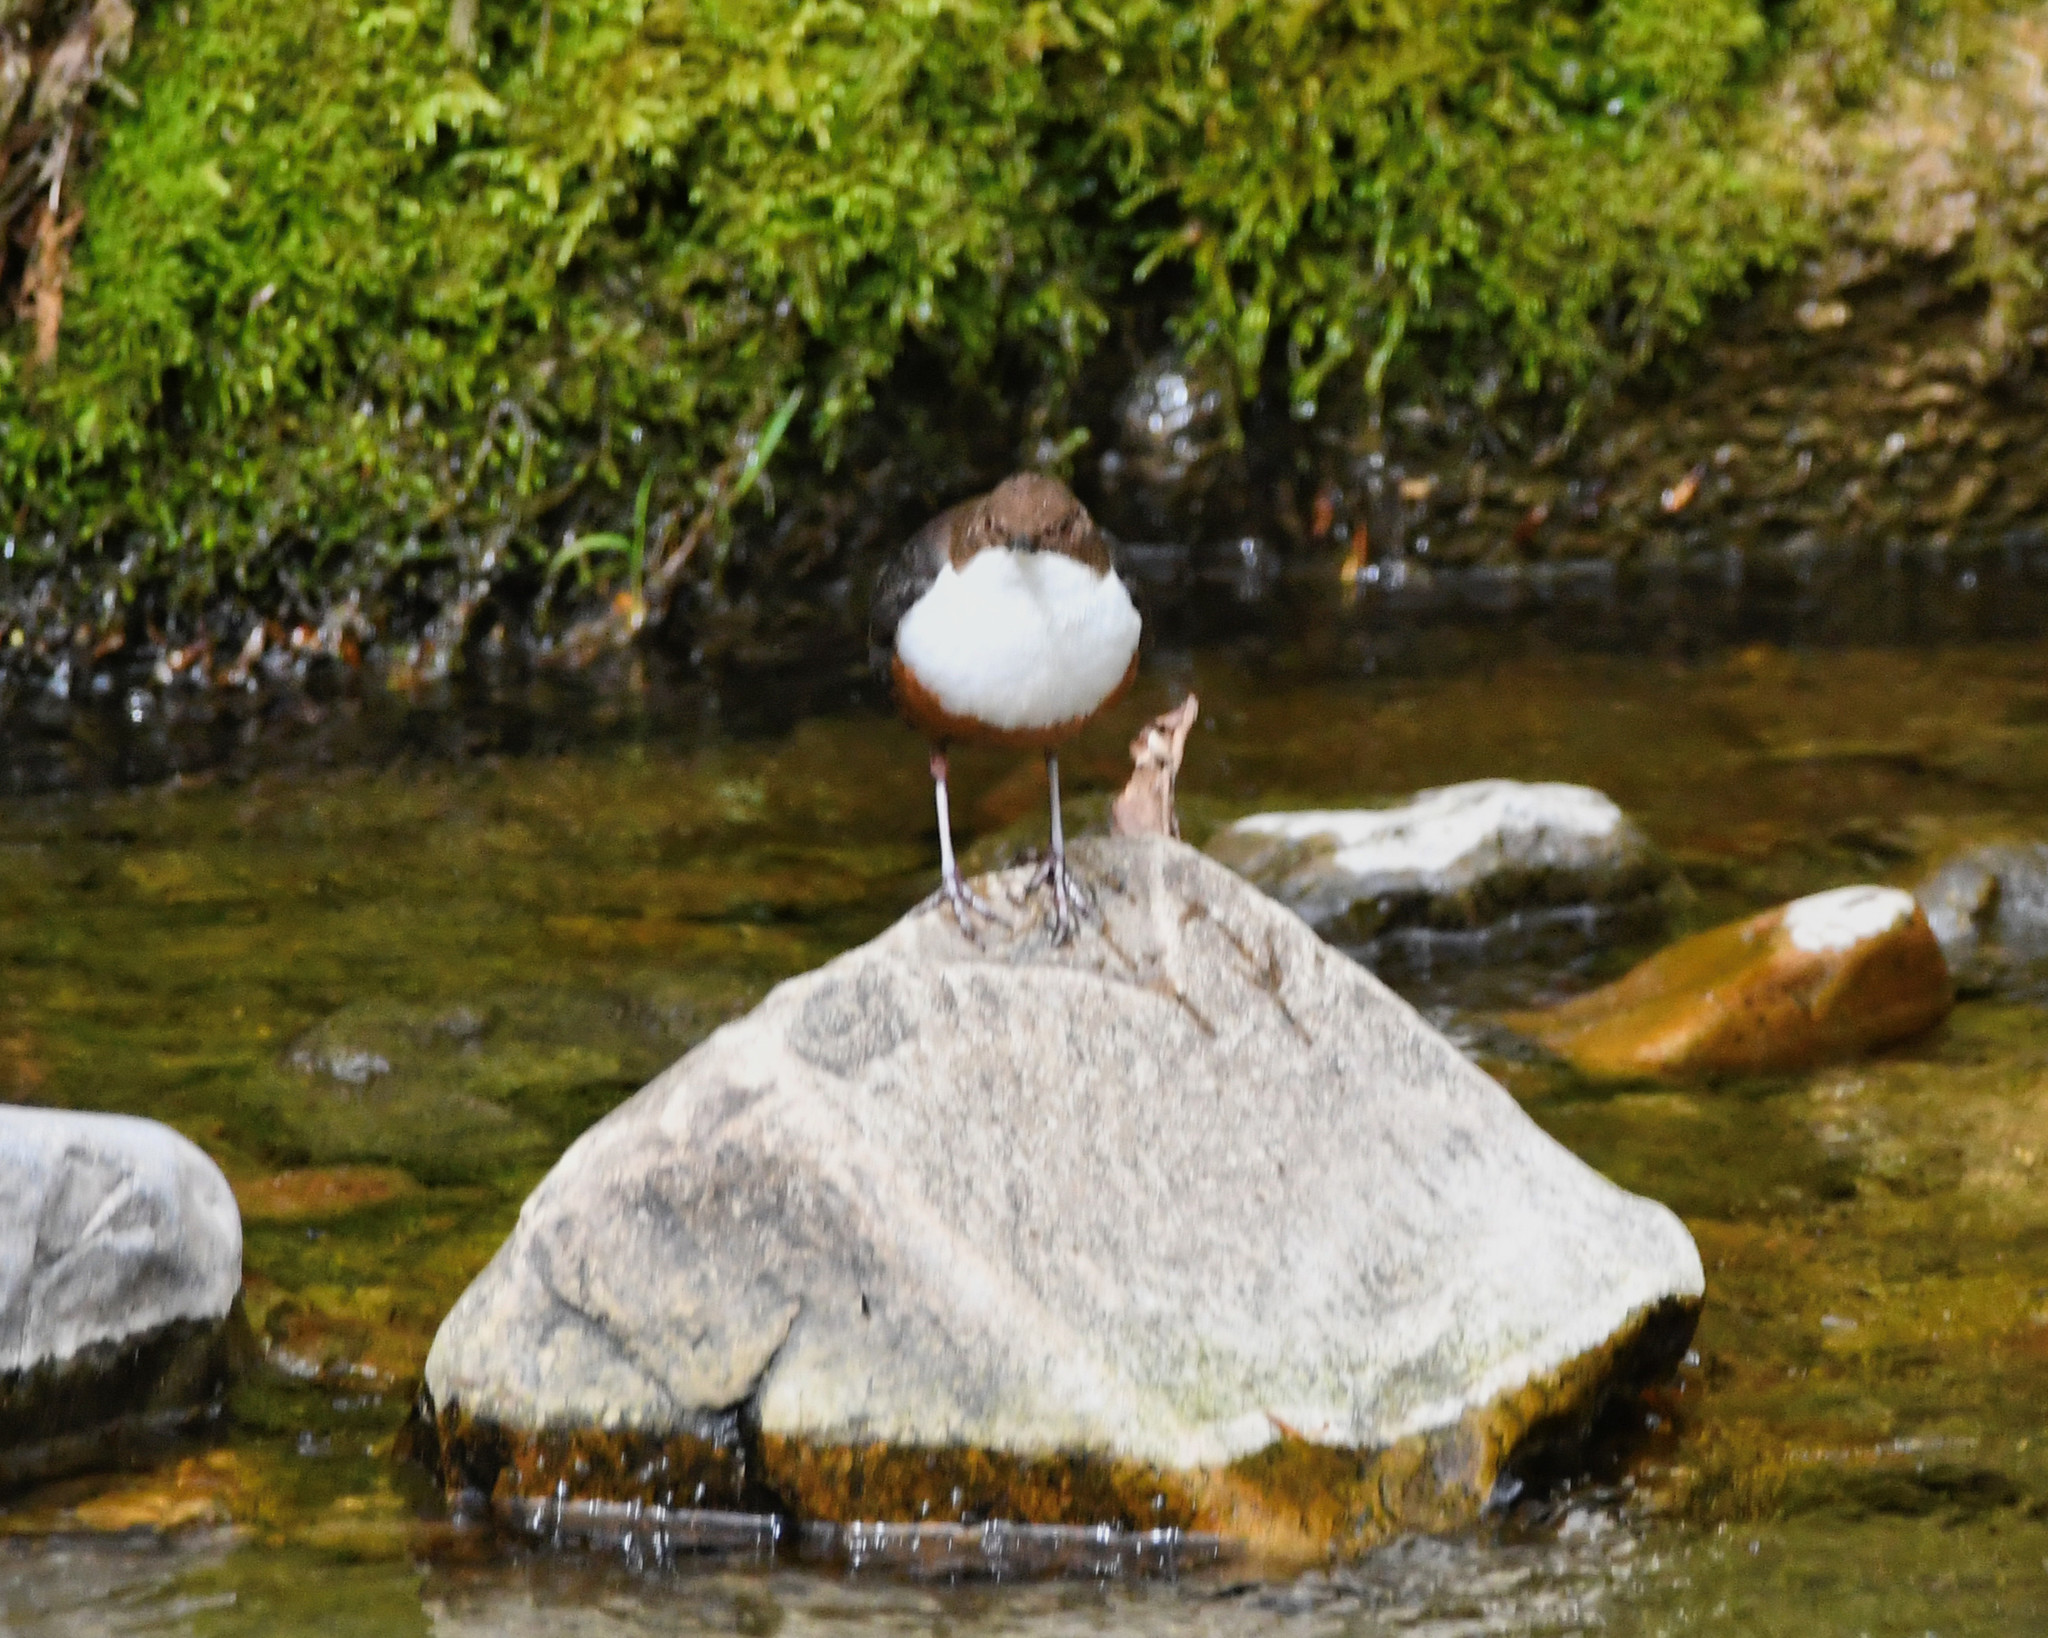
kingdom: Animalia
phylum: Chordata
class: Aves
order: Passeriformes
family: Cinclidae
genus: Cinclus
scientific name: Cinclus cinclus
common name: White-throated dipper
